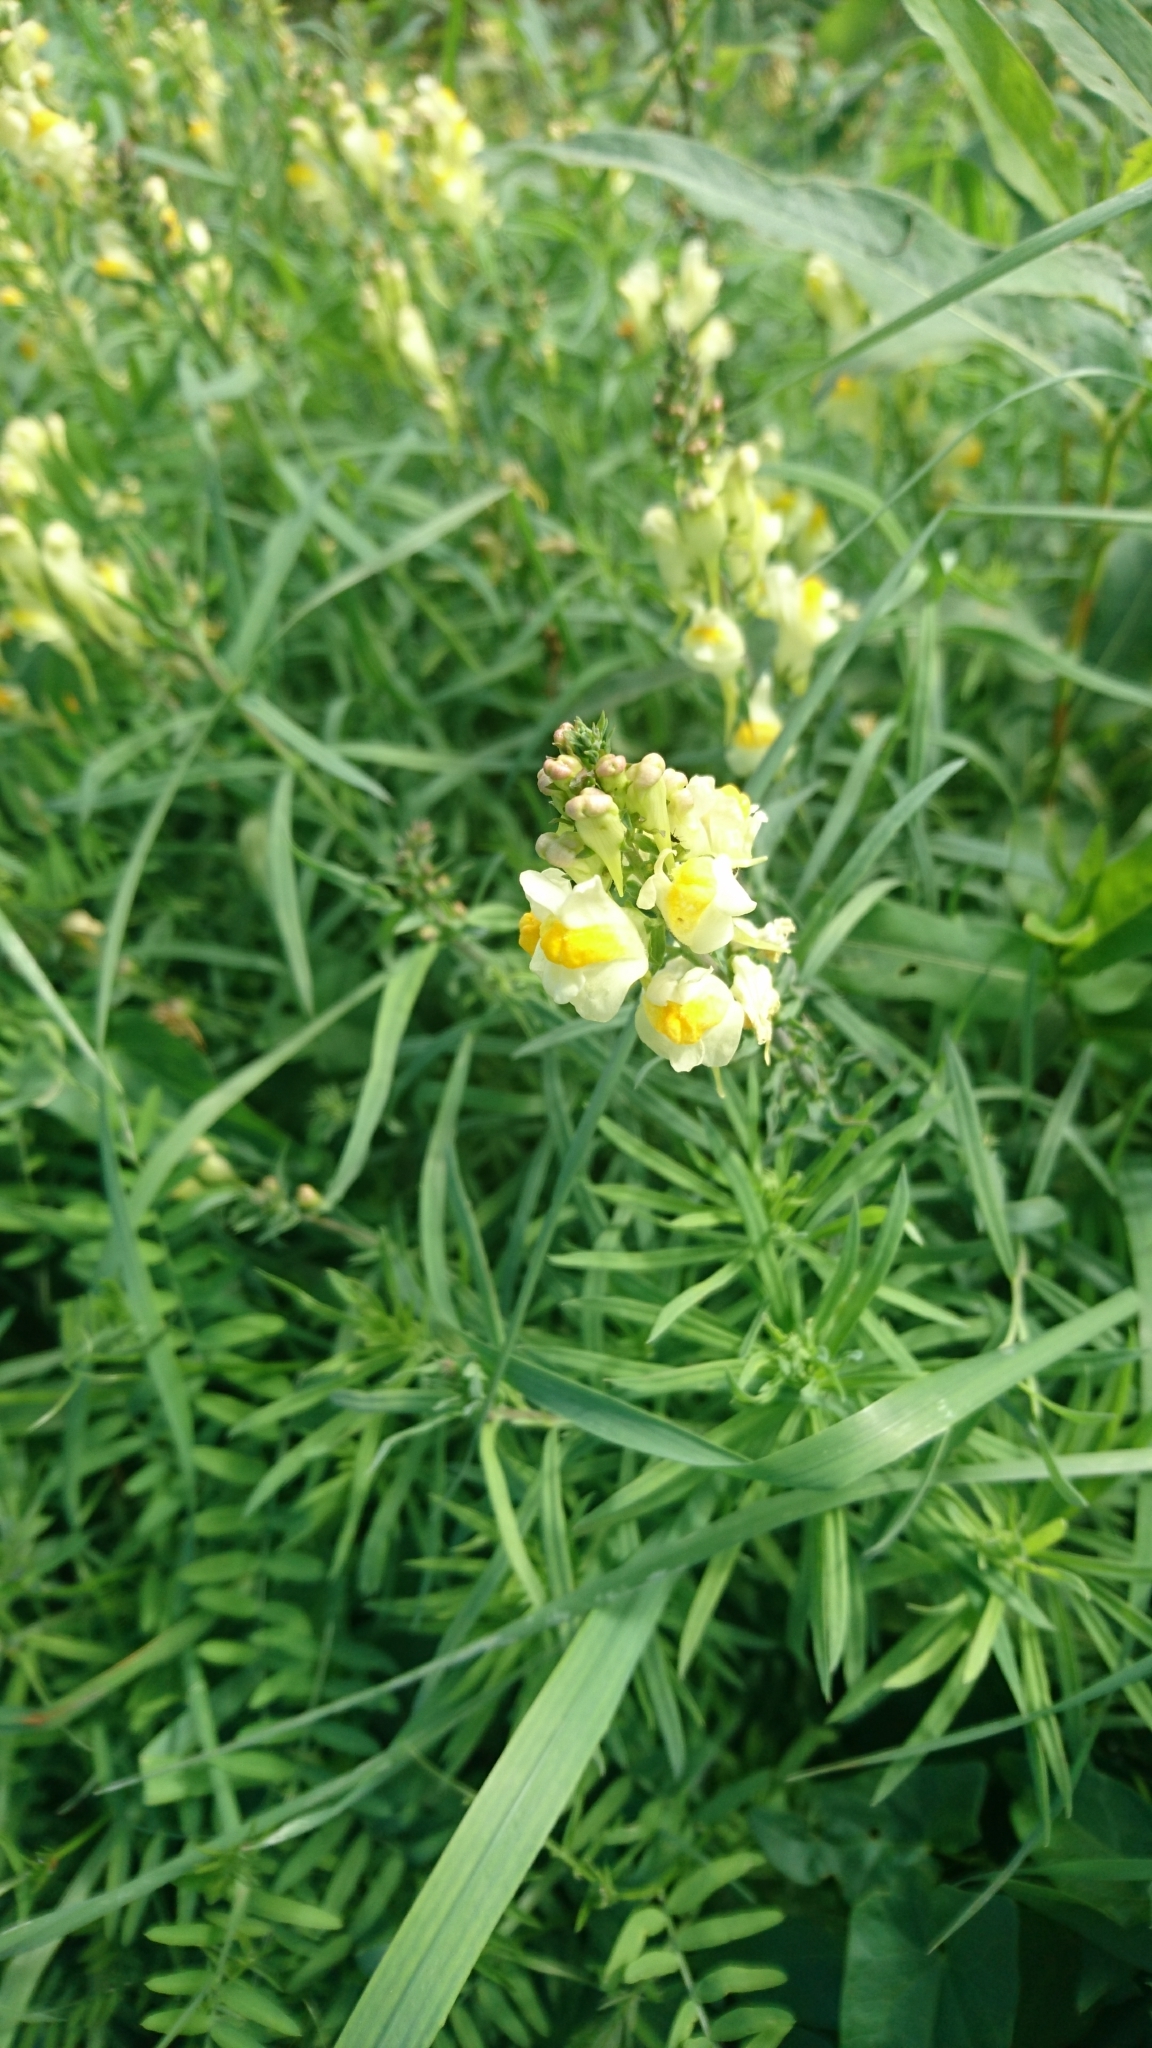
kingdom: Plantae
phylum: Tracheophyta
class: Magnoliopsida
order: Lamiales
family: Plantaginaceae
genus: Linaria
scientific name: Linaria vulgaris
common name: Butter and eggs
